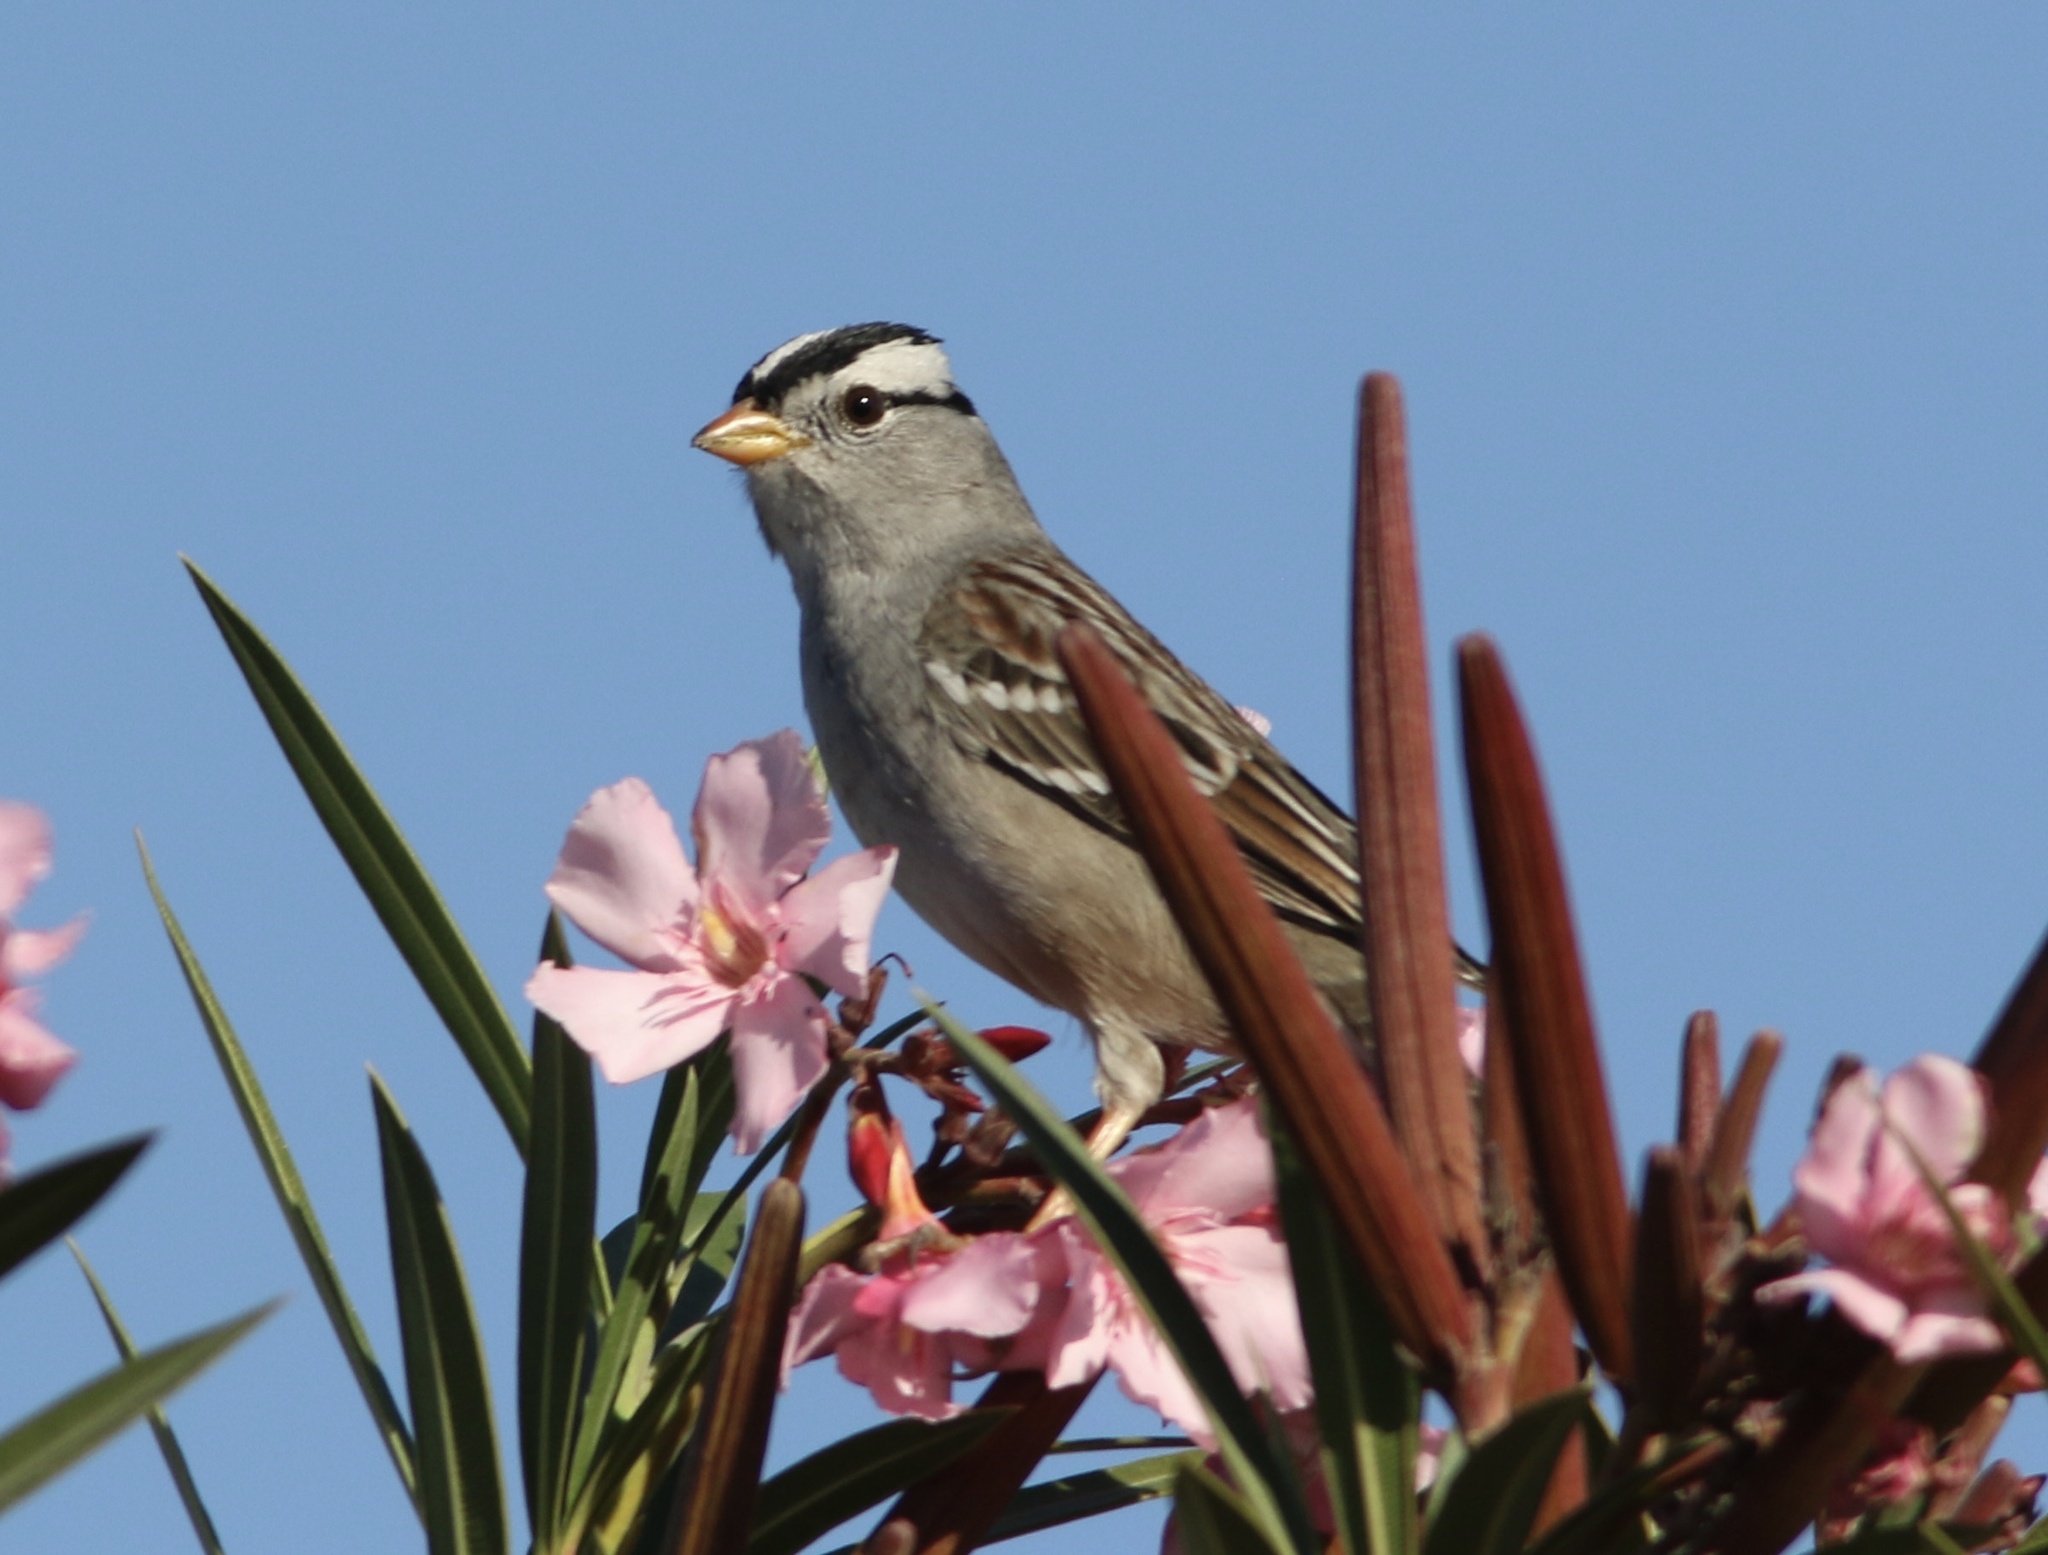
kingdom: Animalia
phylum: Chordata
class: Aves
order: Passeriformes
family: Passerellidae
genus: Zonotrichia
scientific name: Zonotrichia leucophrys
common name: White-crowned sparrow
